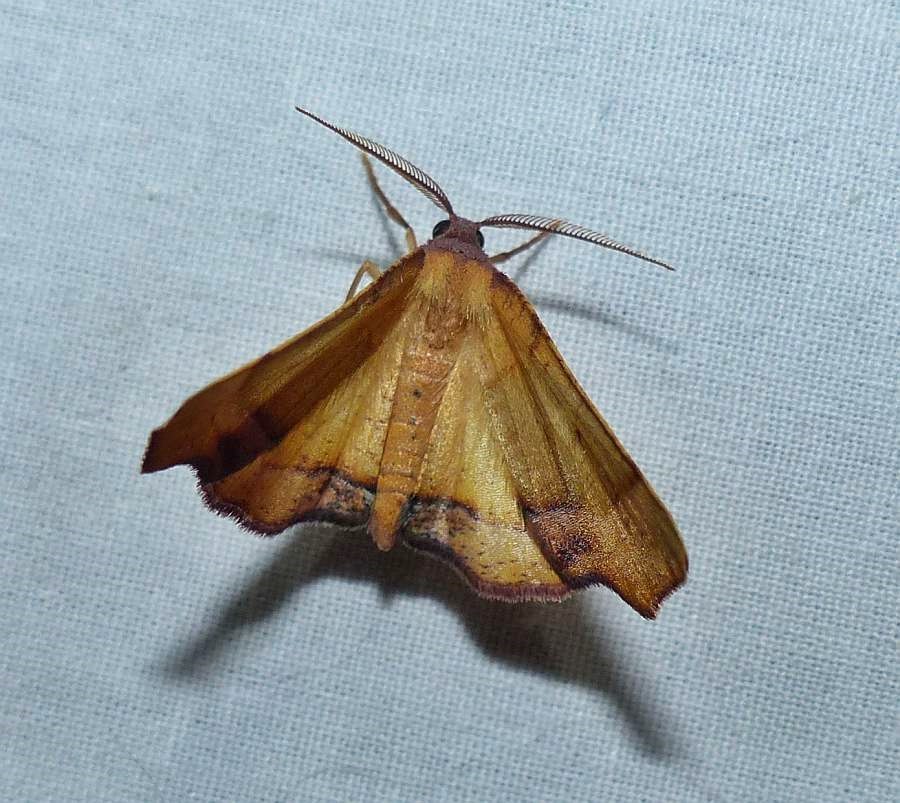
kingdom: Animalia
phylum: Arthropoda
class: Insecta
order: Lepidoptera
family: Geometridae
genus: Plagodis
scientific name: Plagodis phlogosaria
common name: Straight-lined plagodis
